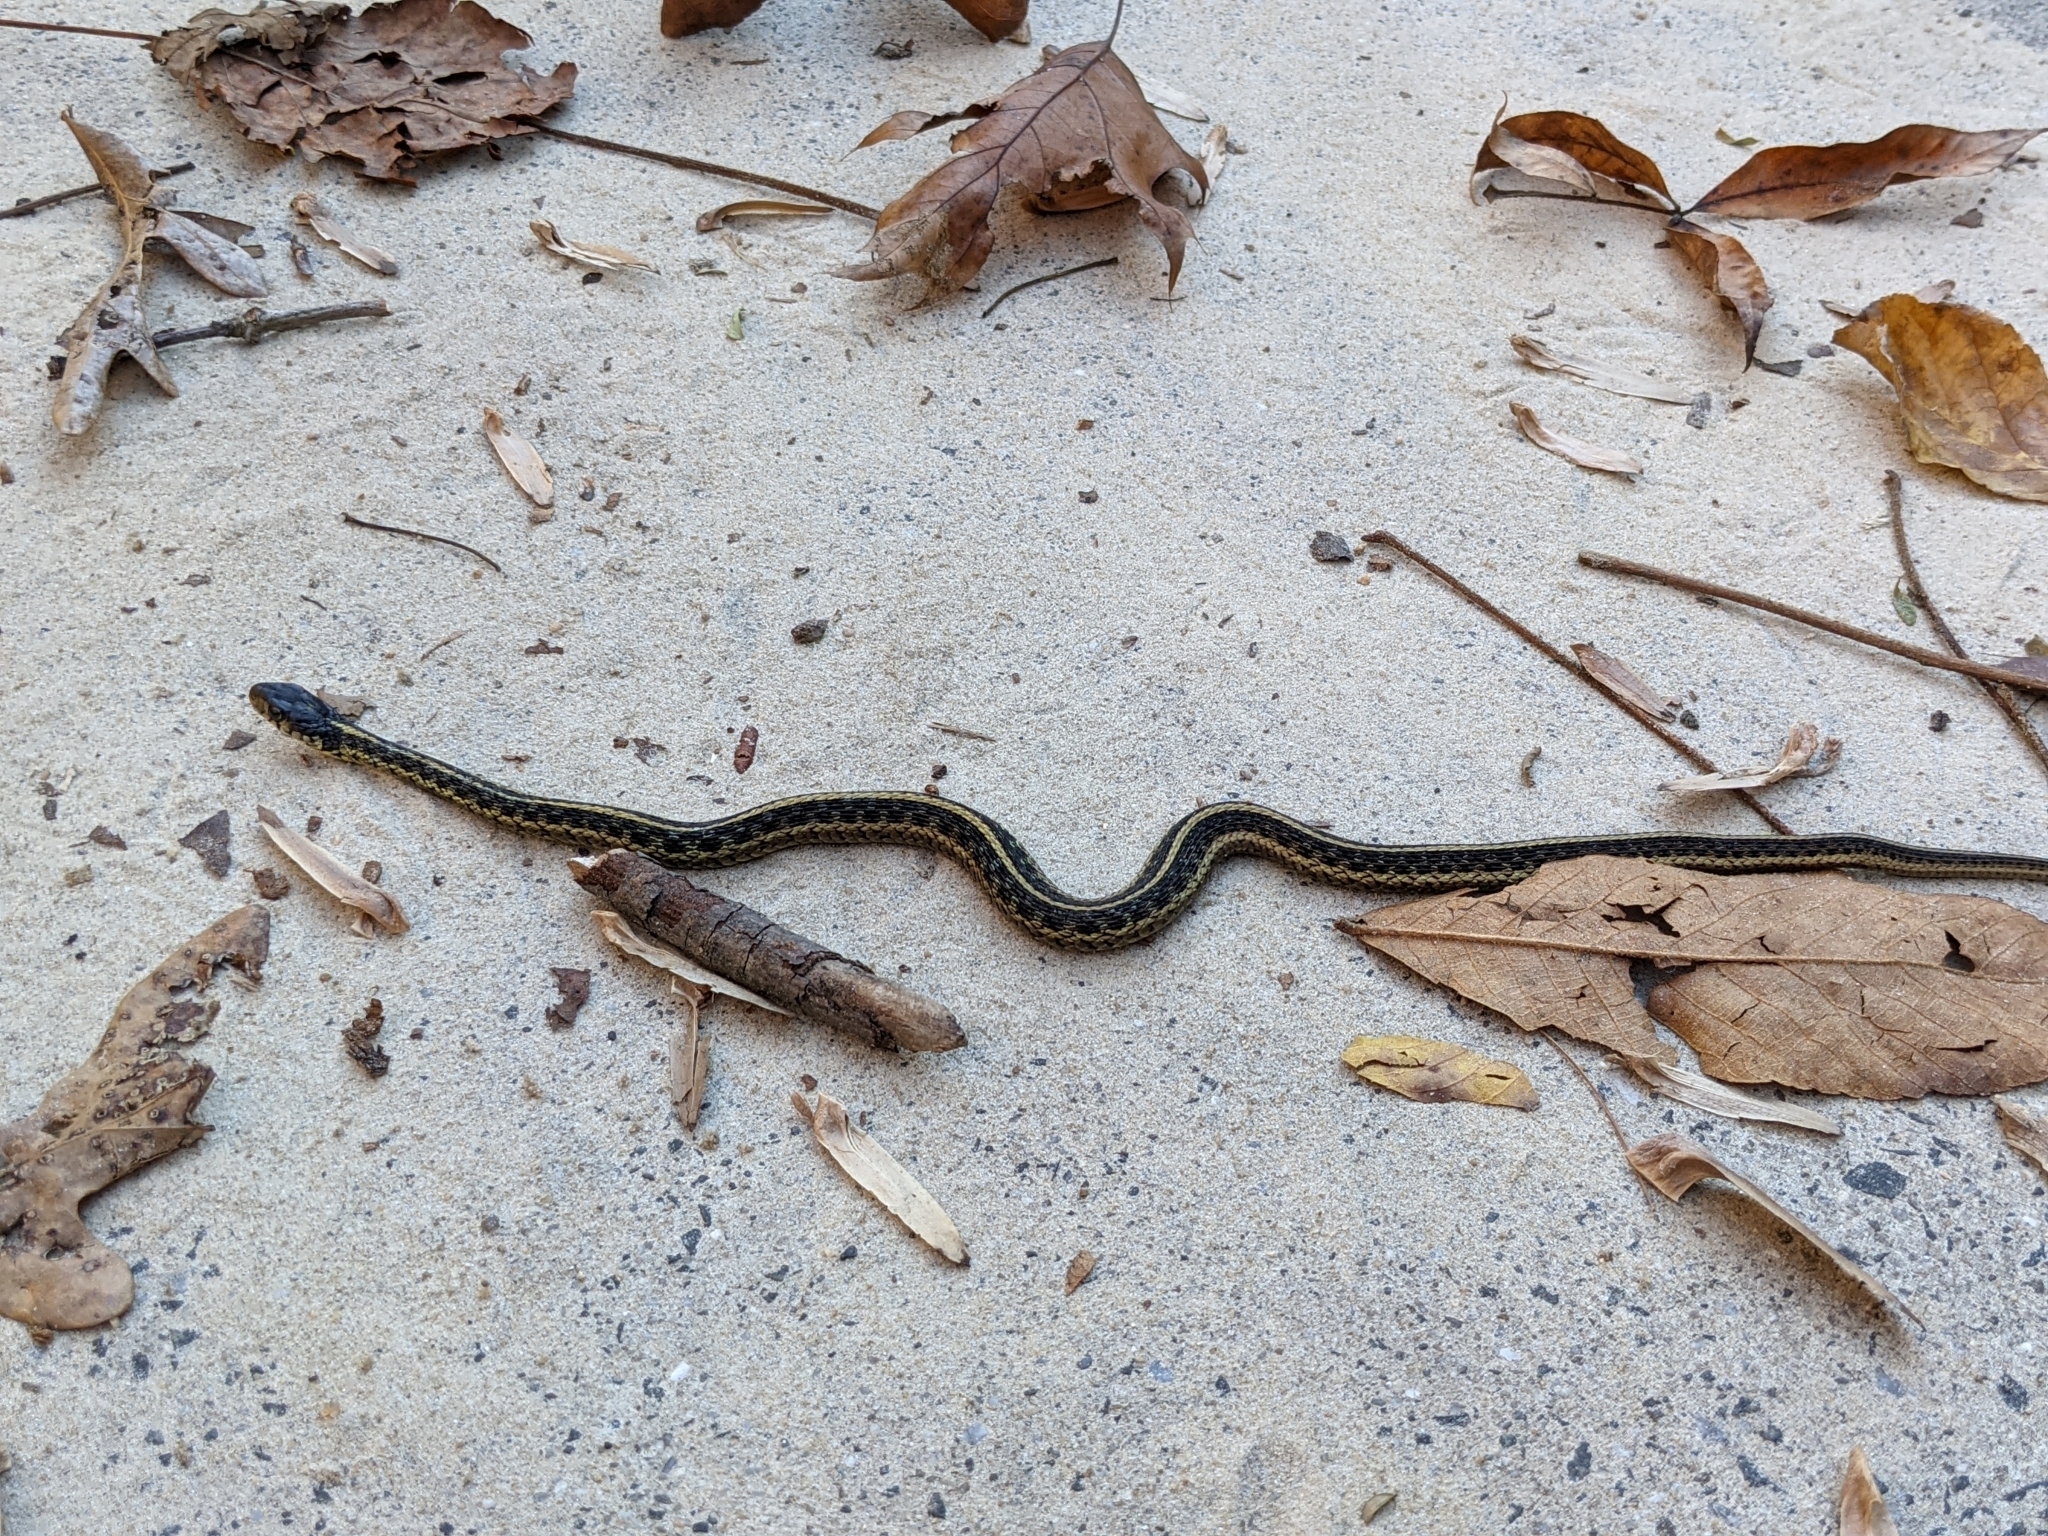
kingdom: Animalia
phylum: Chordata
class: Squamata
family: Colubridae
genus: Thamnophis
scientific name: Thamnophis sirtalis
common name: Common garter snake
